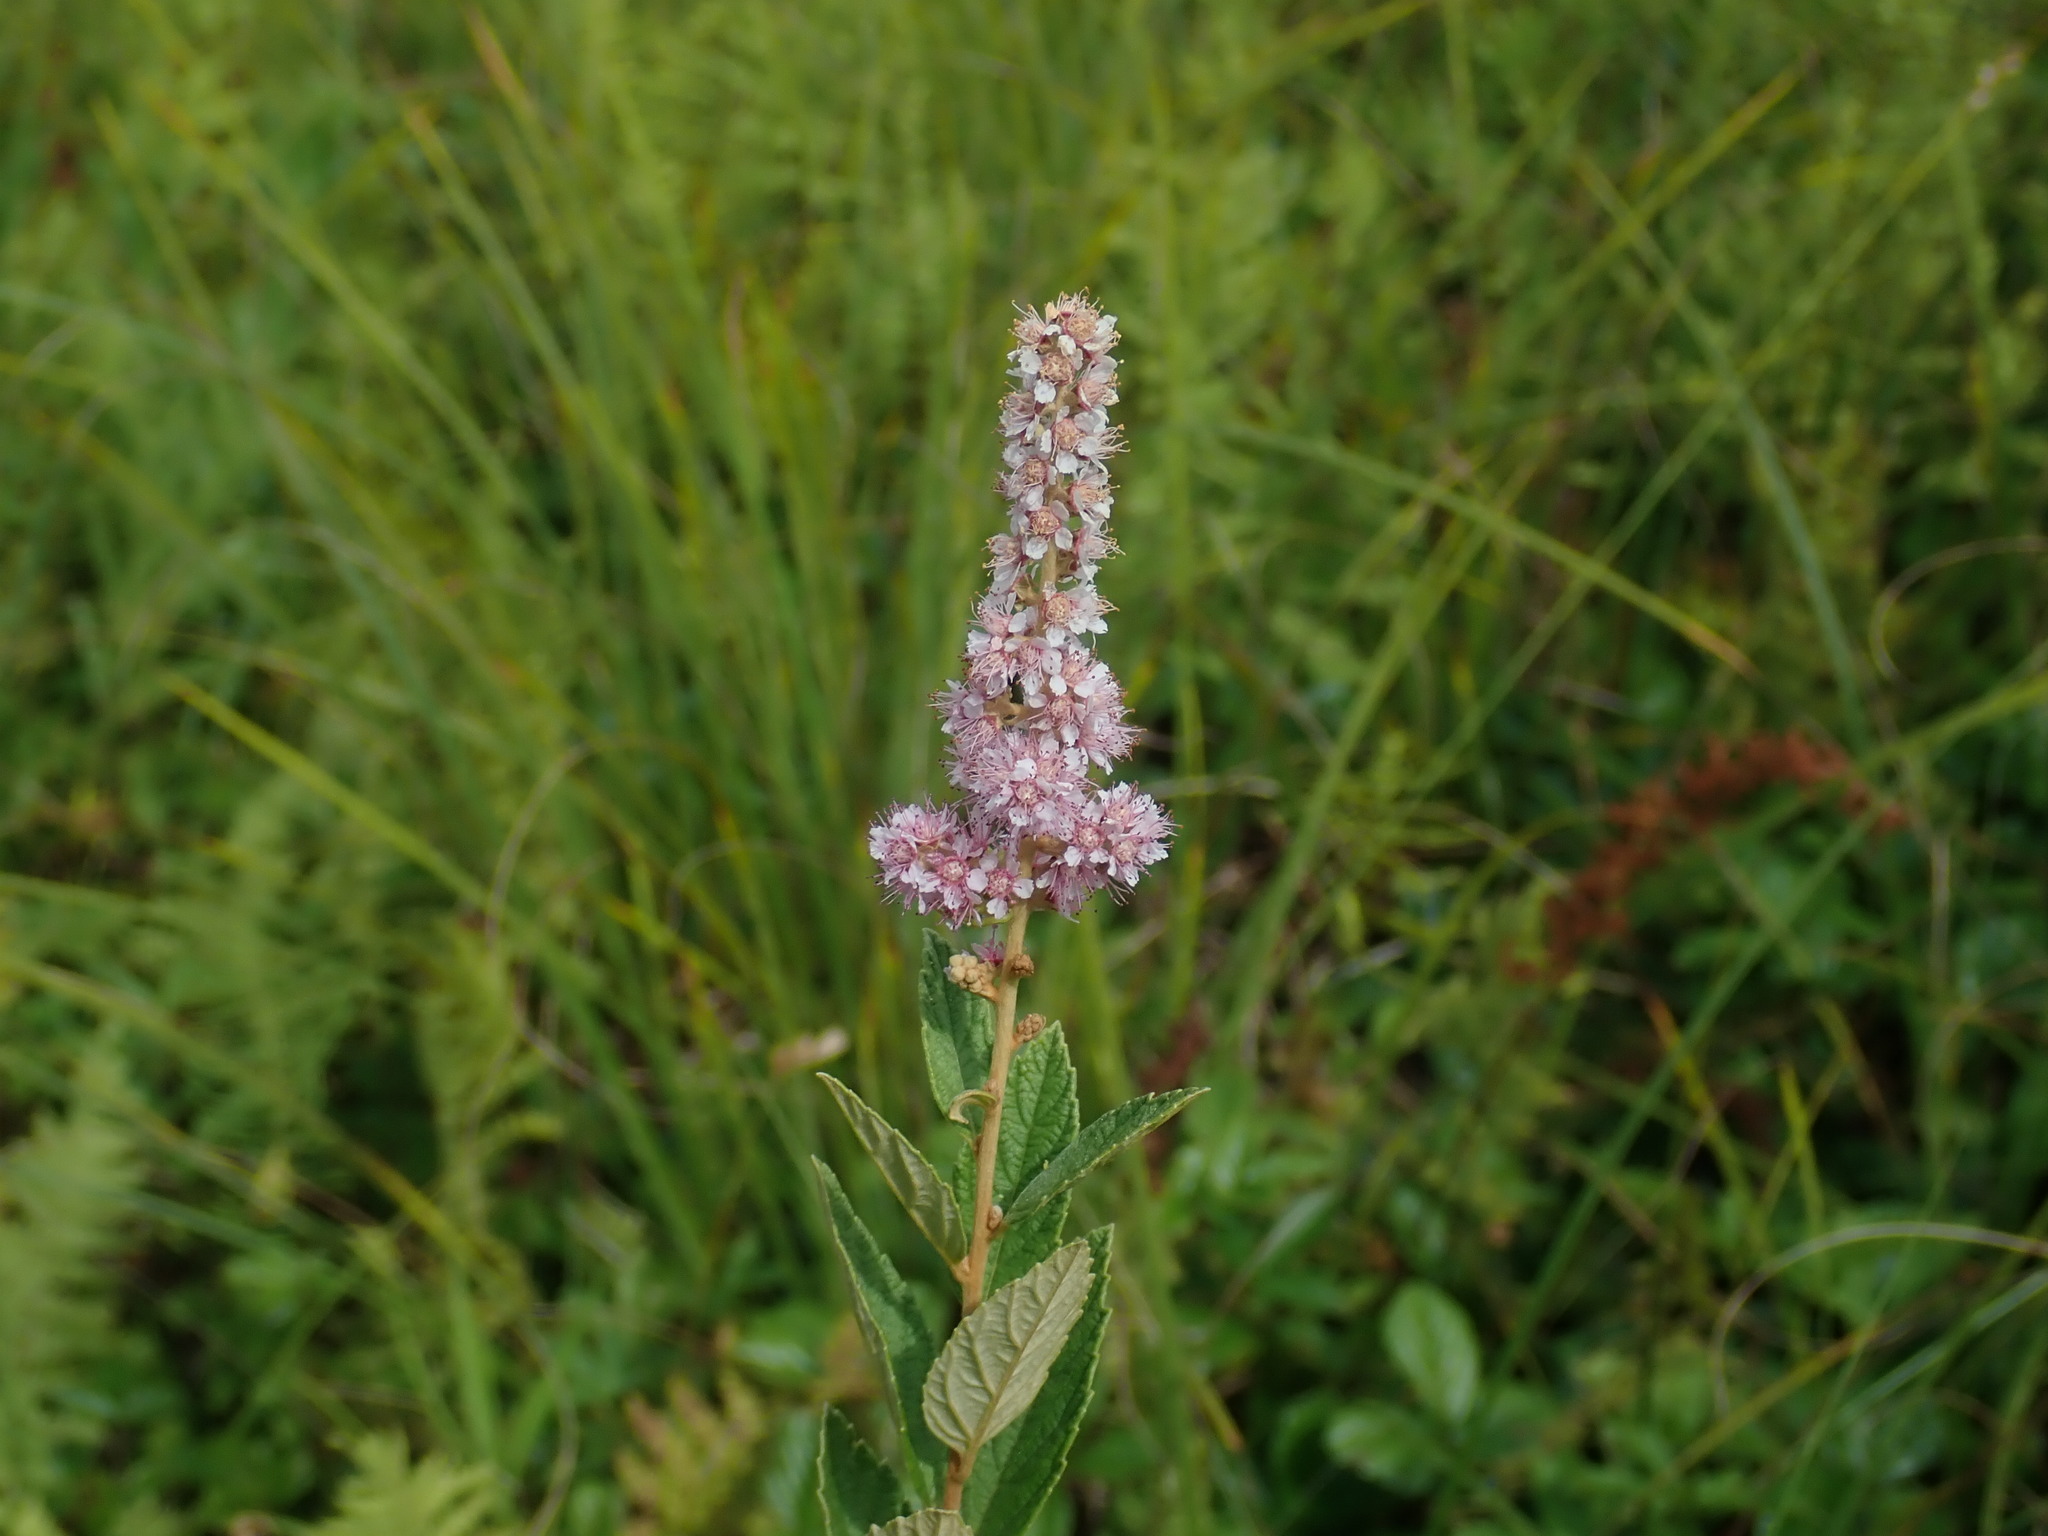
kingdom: Plantae
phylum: Tracheophyta
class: Magnoliopsida
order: Rosales
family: Rosaceae
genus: Spiraea
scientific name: Spiraea tomentosa
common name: Hardhack
